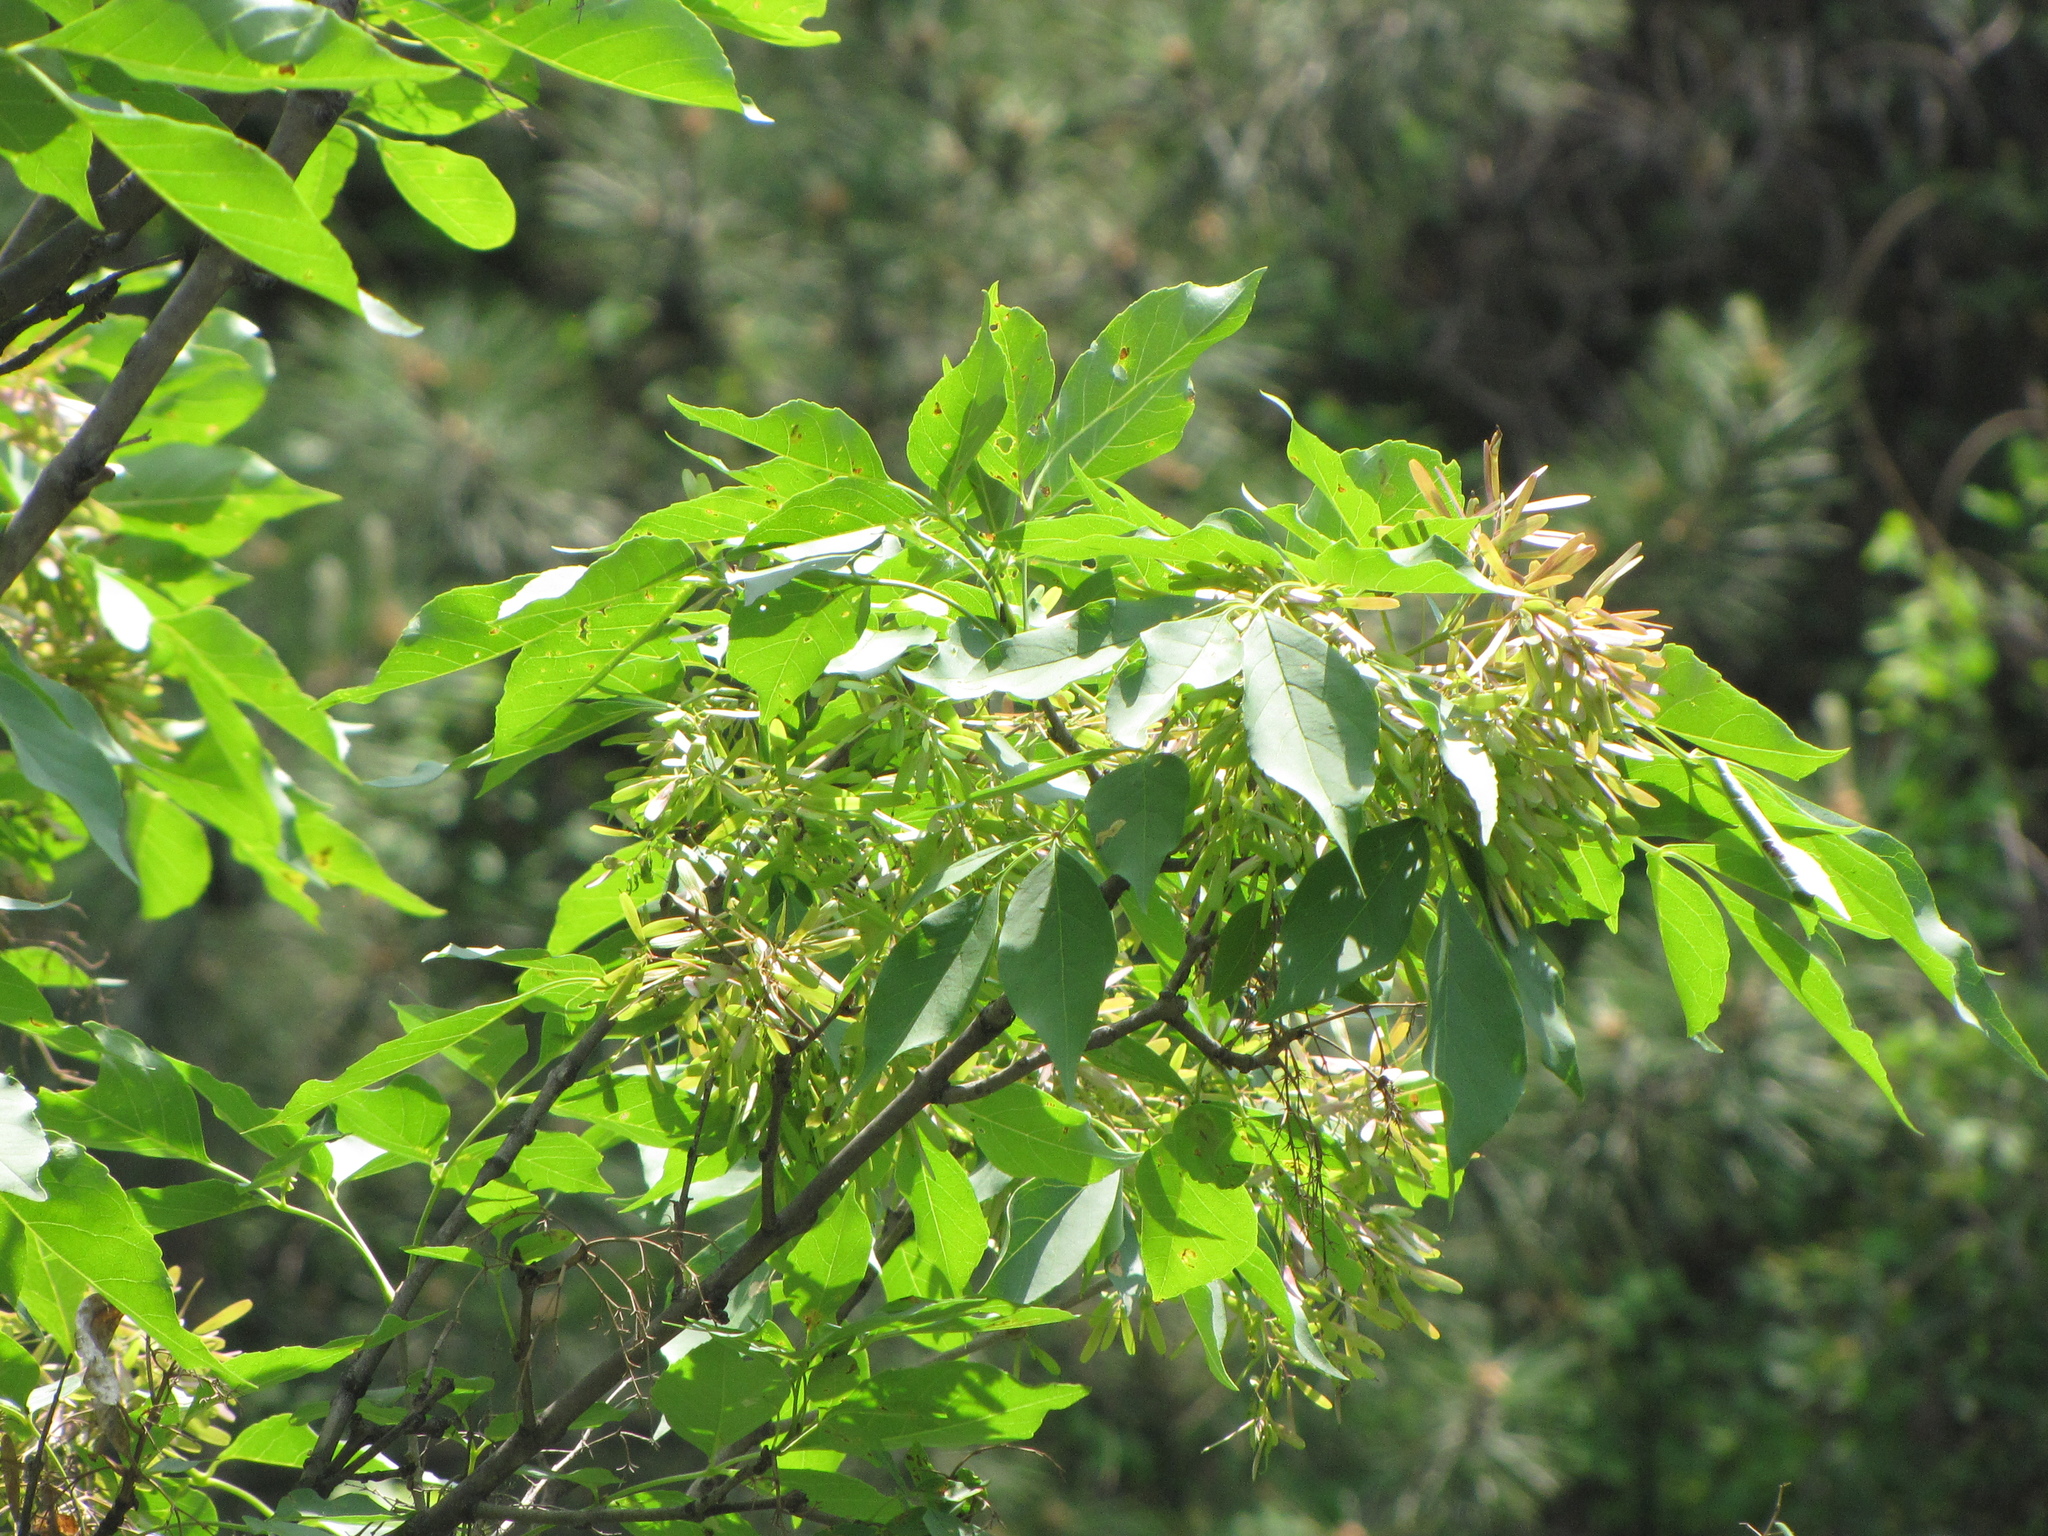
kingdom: Plantae
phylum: Tracheophyta
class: Magnoliopsida
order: Lamiales
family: Oleaceae
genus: Fraxinus
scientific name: Fraxinus chinensis
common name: Chinese ash
